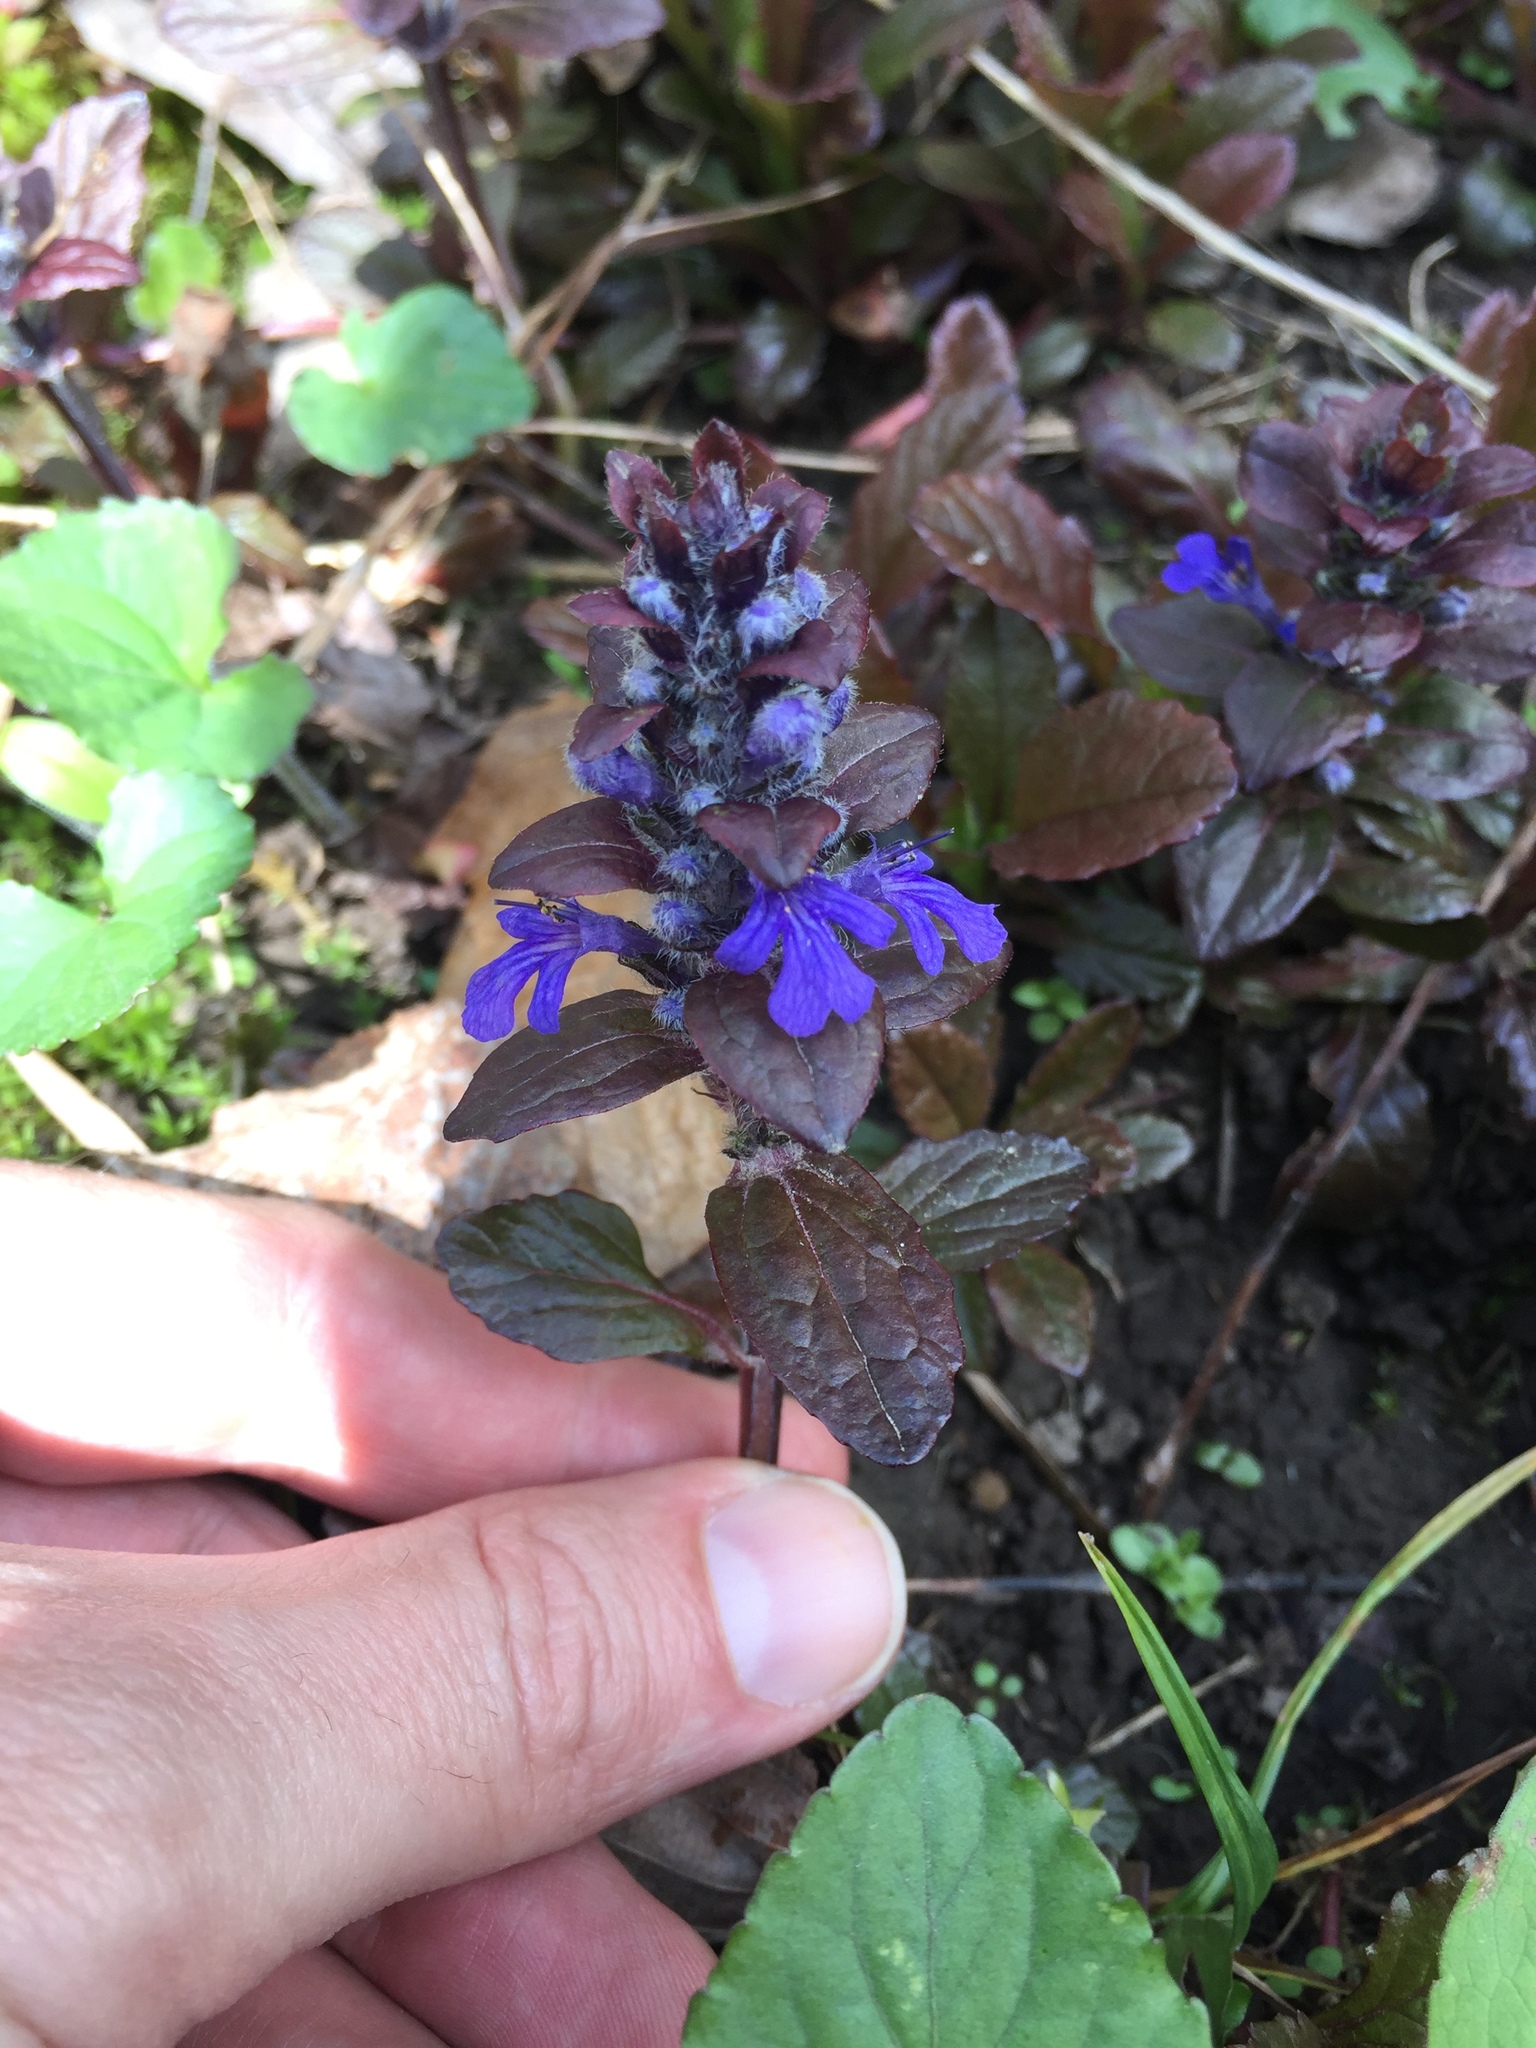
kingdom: Plantae
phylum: Tracheophyta
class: Magnoliopsida
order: Lamiales
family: Lamiaceae
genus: Ajuga
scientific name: Ajuga reptans
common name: Bugle
